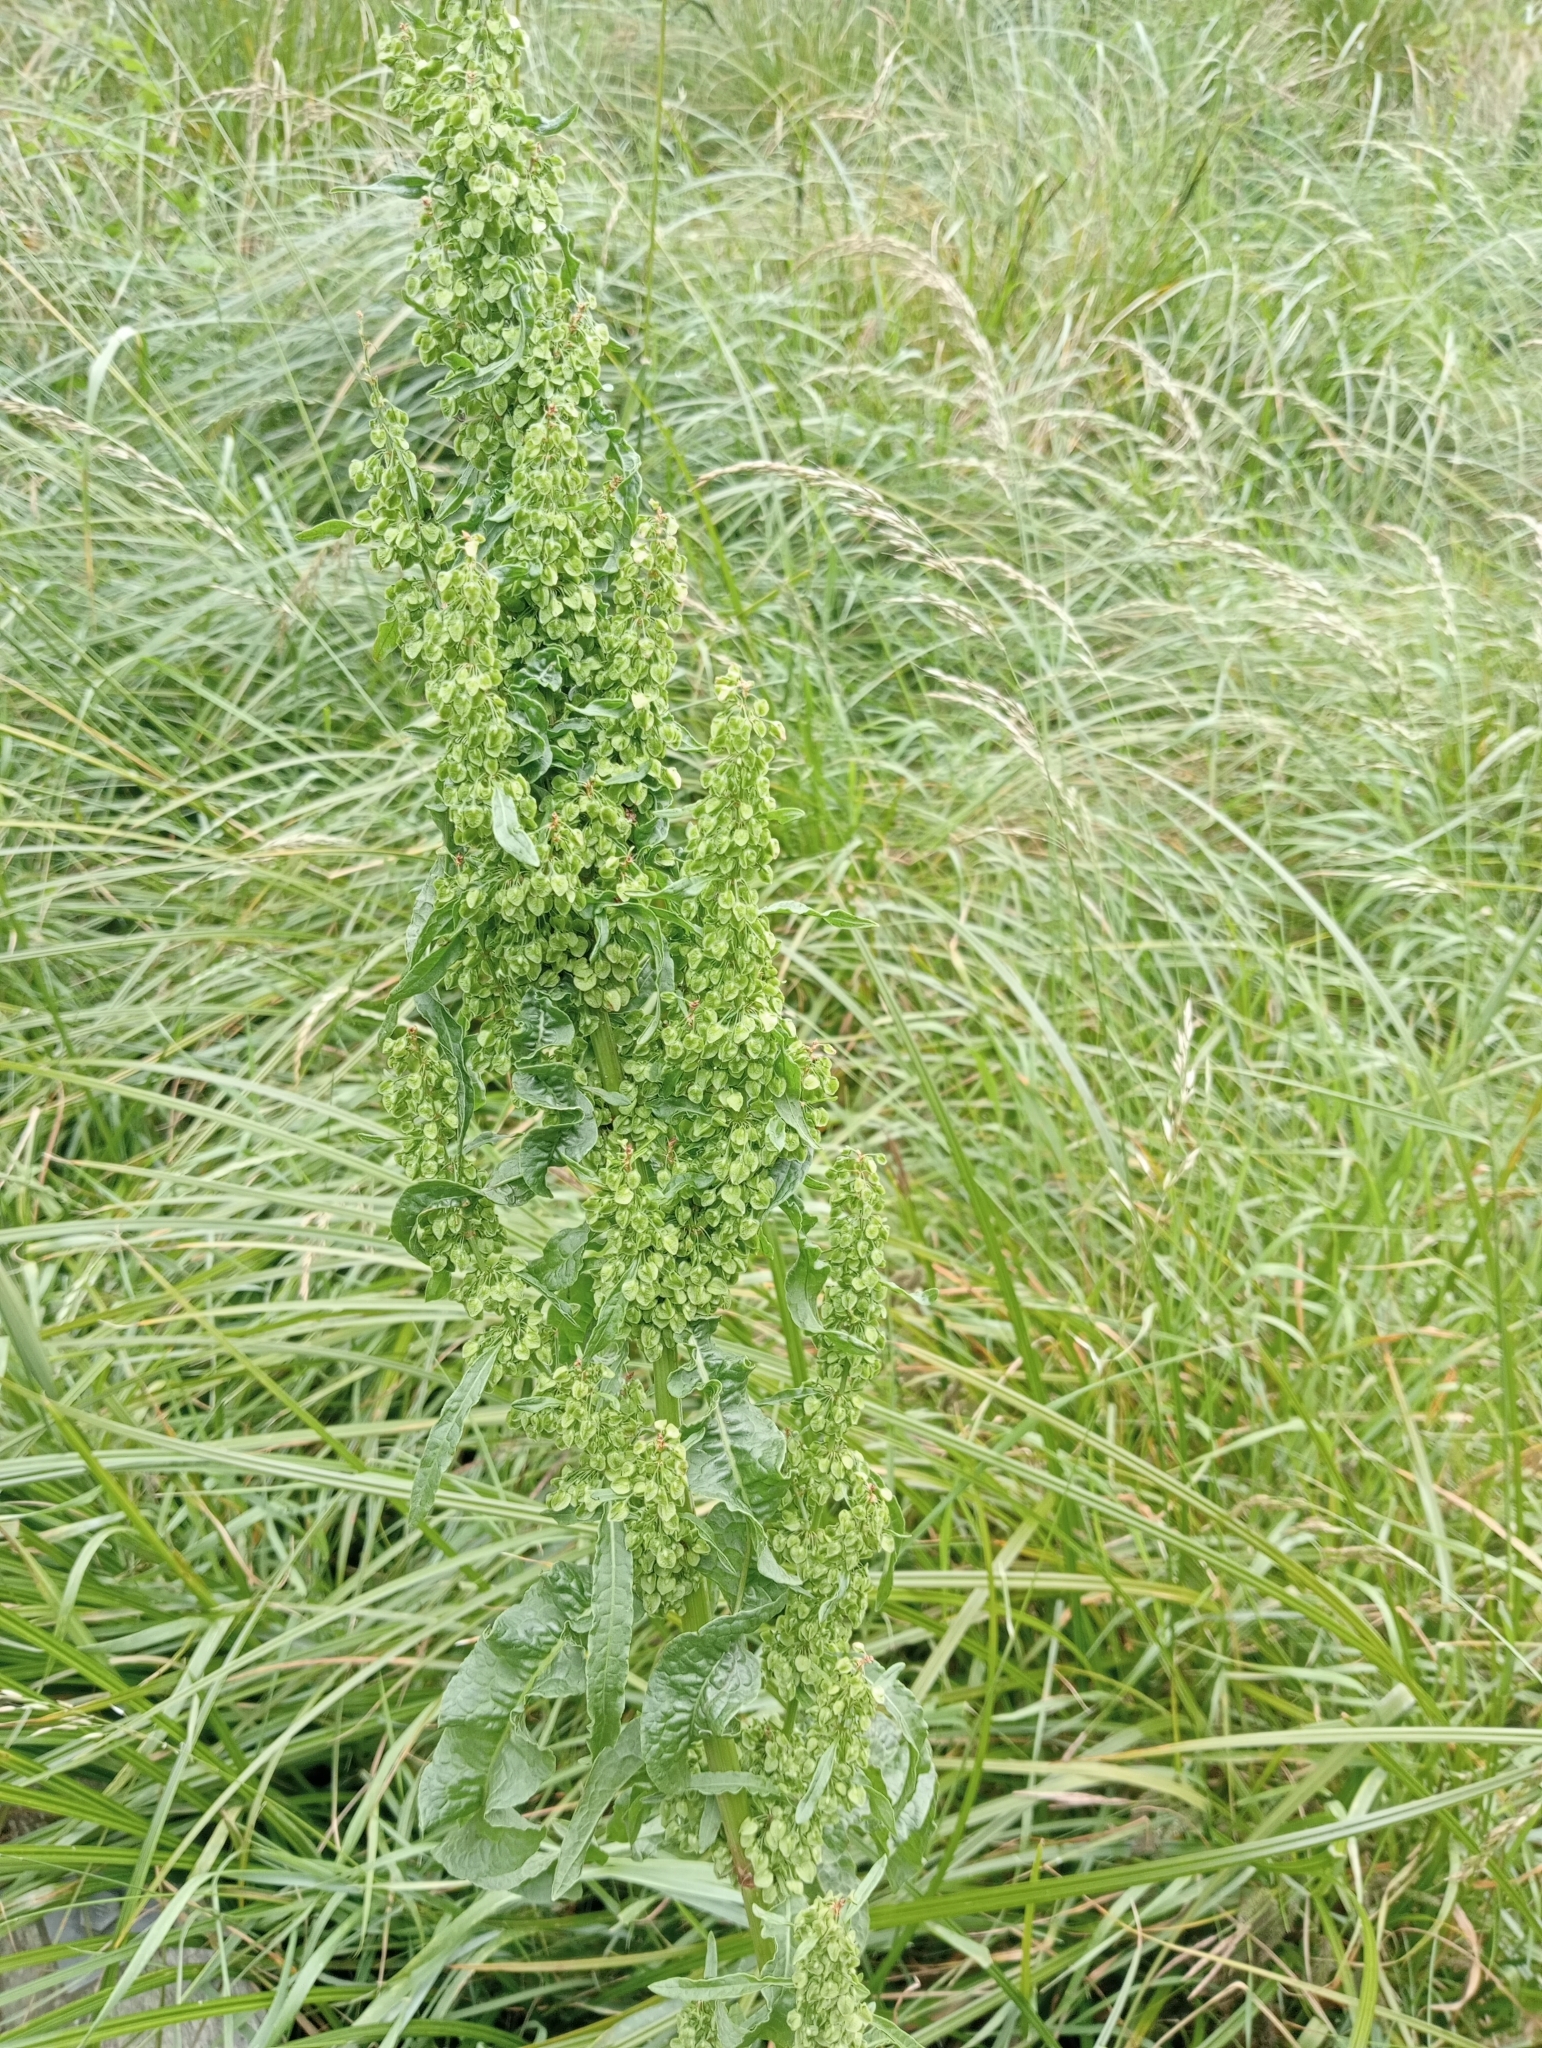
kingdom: Plantae
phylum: Tracheophyta
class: Magnoliopsida
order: Caryophyllales
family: Polygonaceae
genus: Rumex
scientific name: Rumex obtusifolius
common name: Bitter dock
